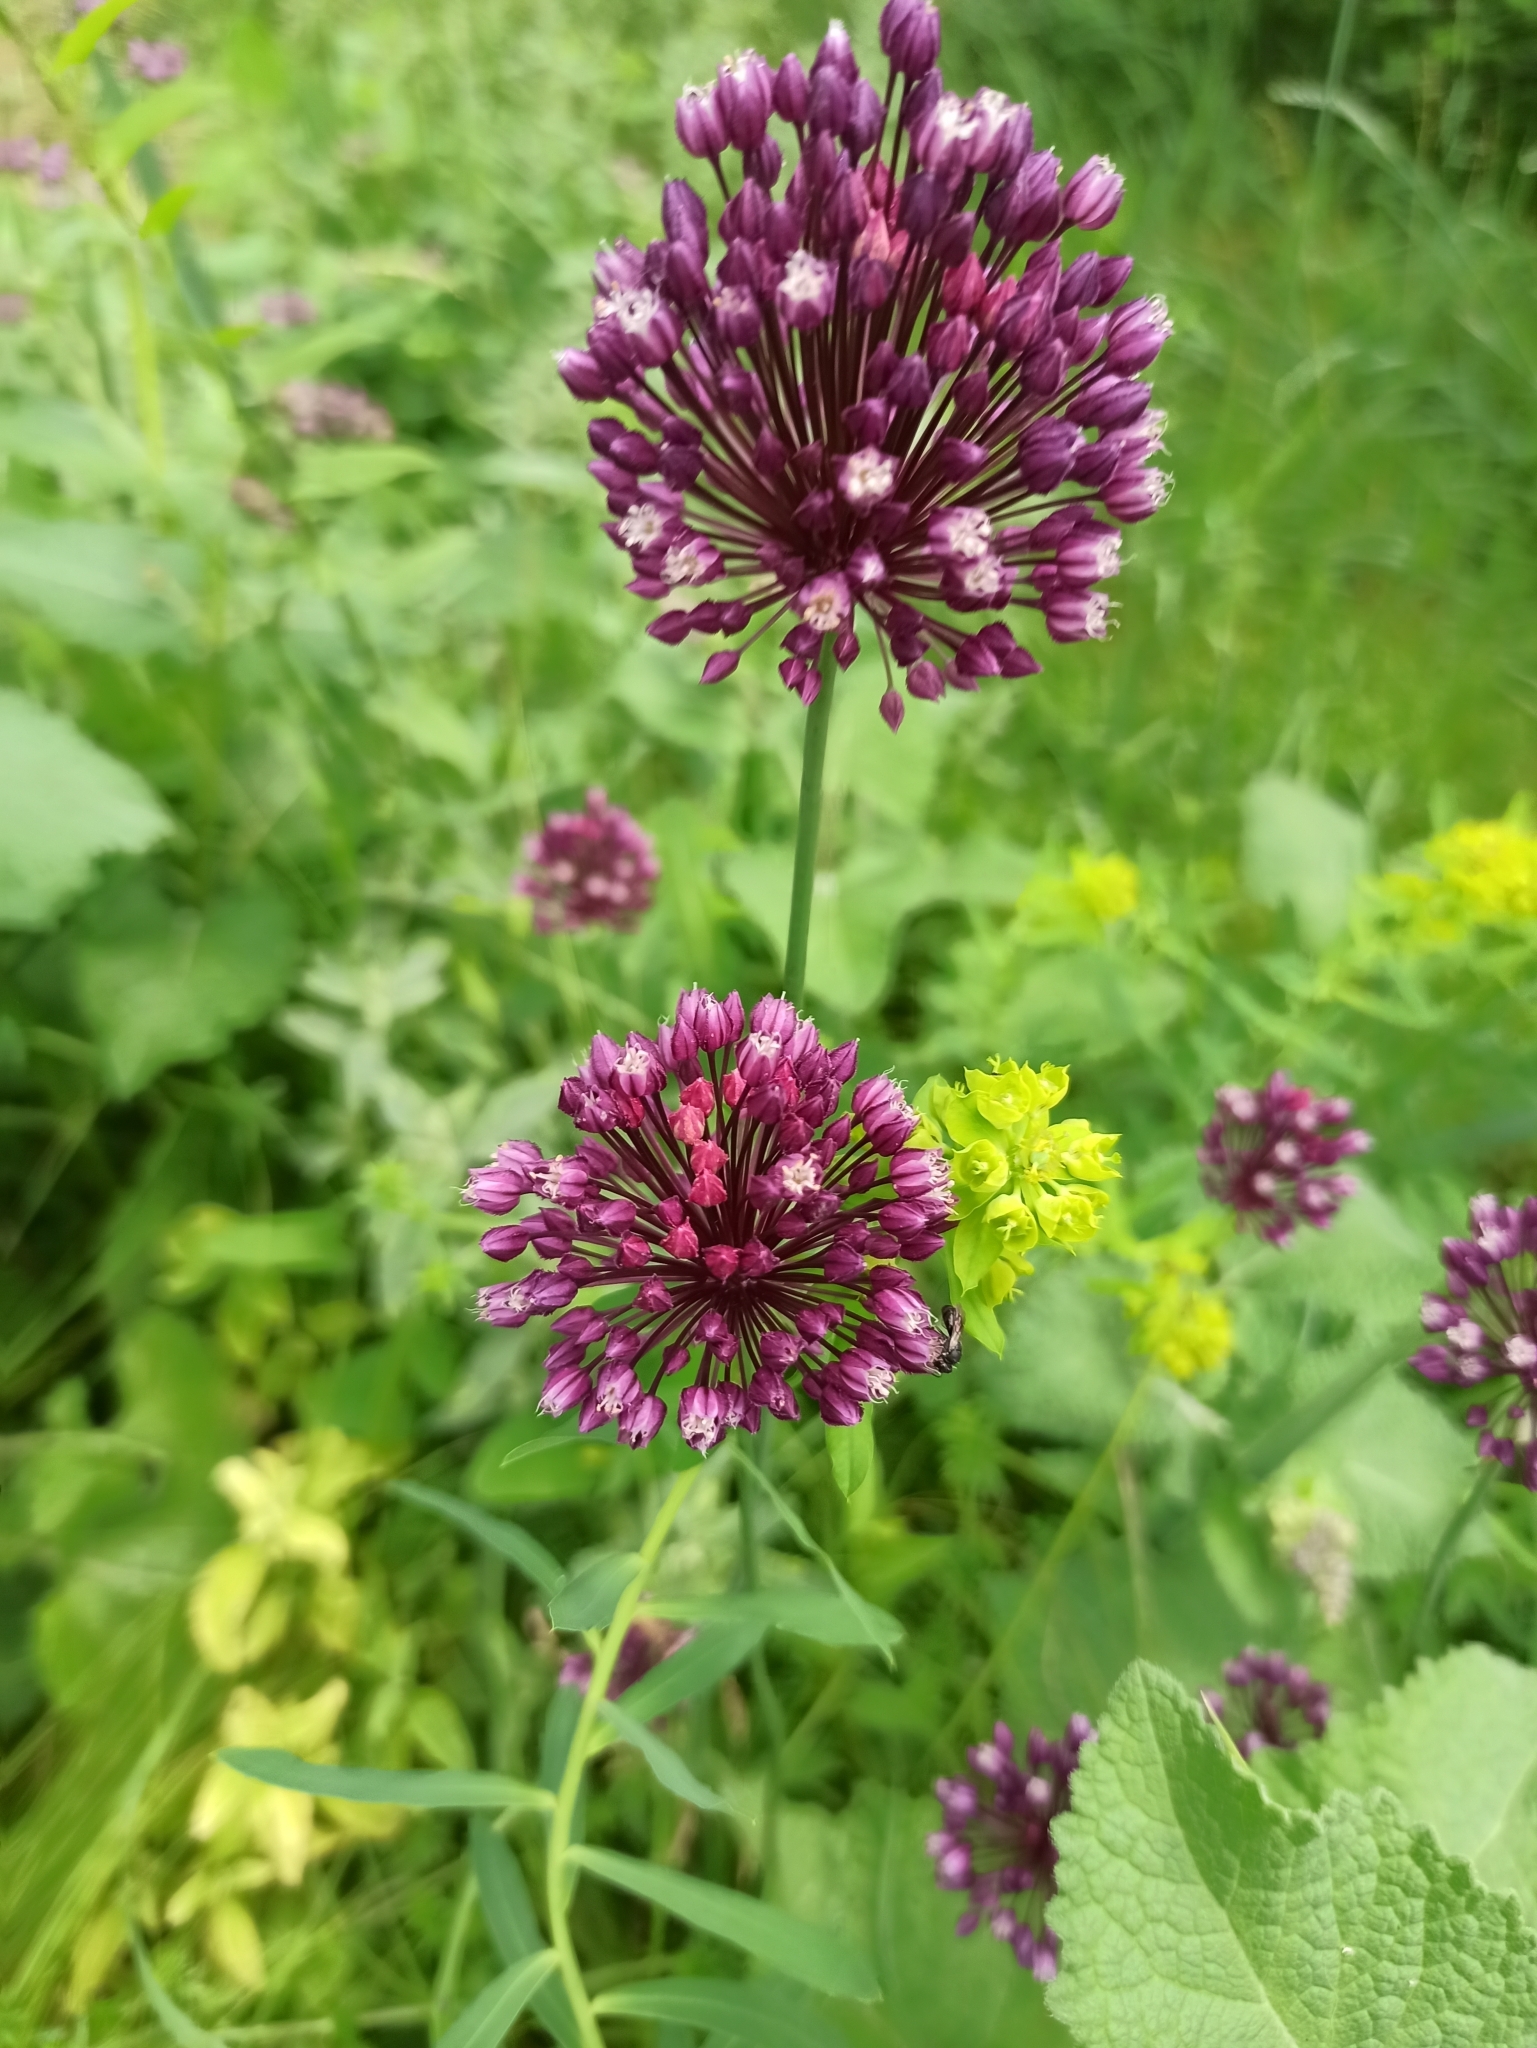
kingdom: Plantae
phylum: Tracheophyta
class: Liliopsida
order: Asparagales
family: Amaryllidaceae
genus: Allium
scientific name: Allium rotundum
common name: Sand leek
